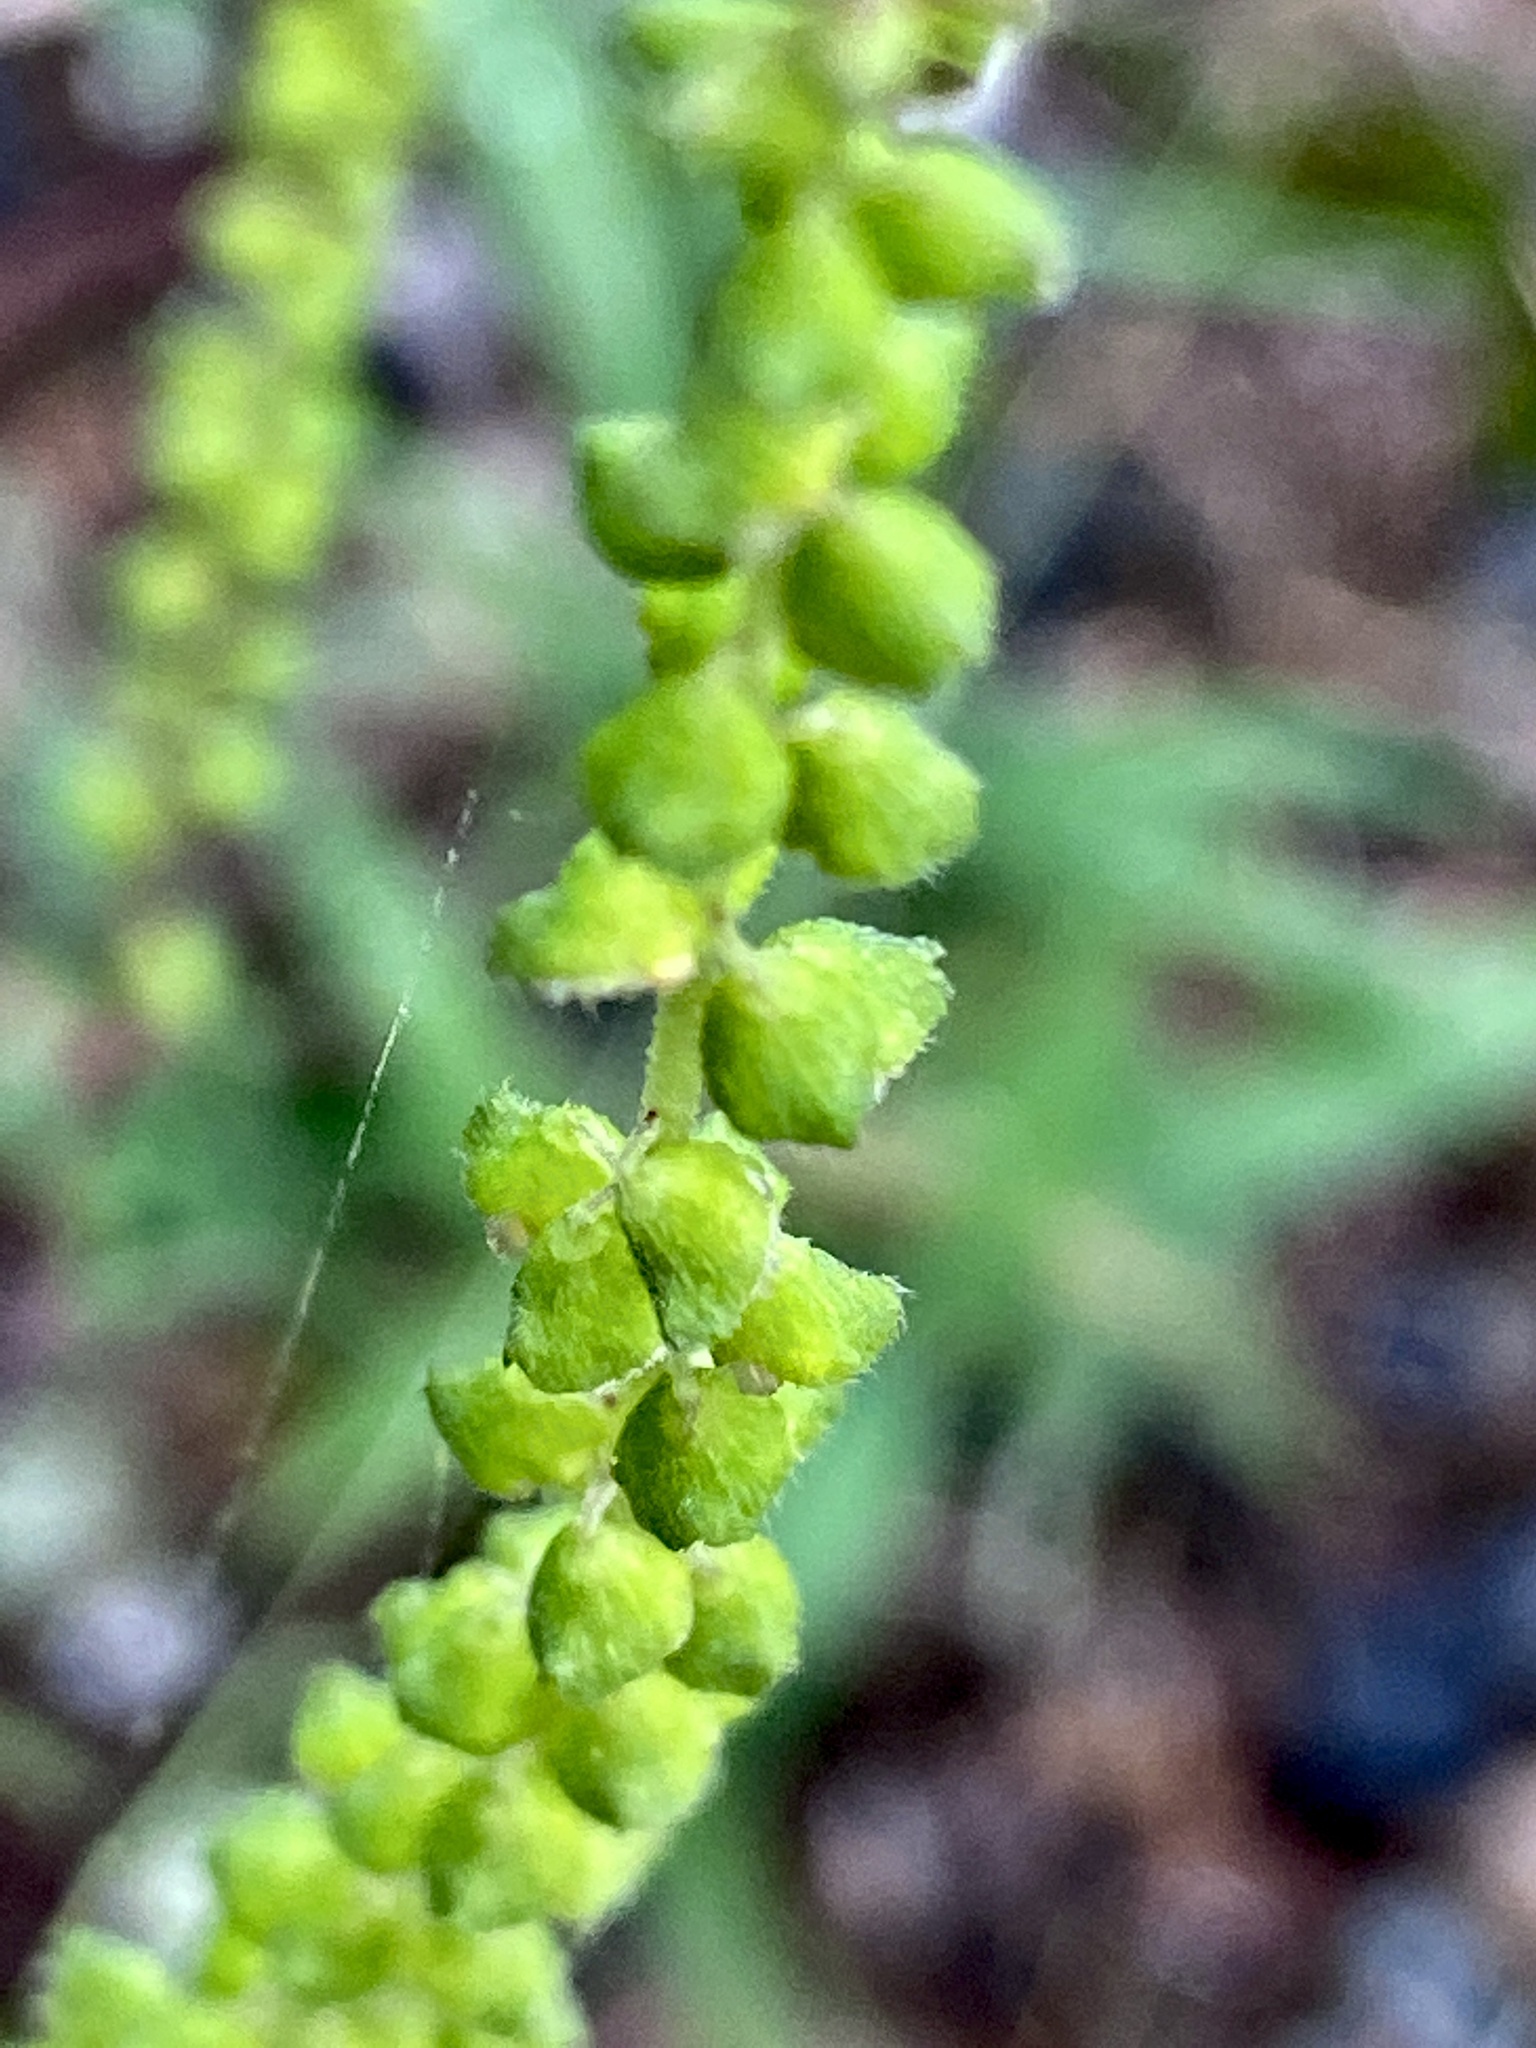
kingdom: Plantae
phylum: Tracheophyta
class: Magnoliopsida
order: Asterales
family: Asteraceae
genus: Ambrosia
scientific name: Ambrosia artemisiifolia
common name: Annual ragweed
